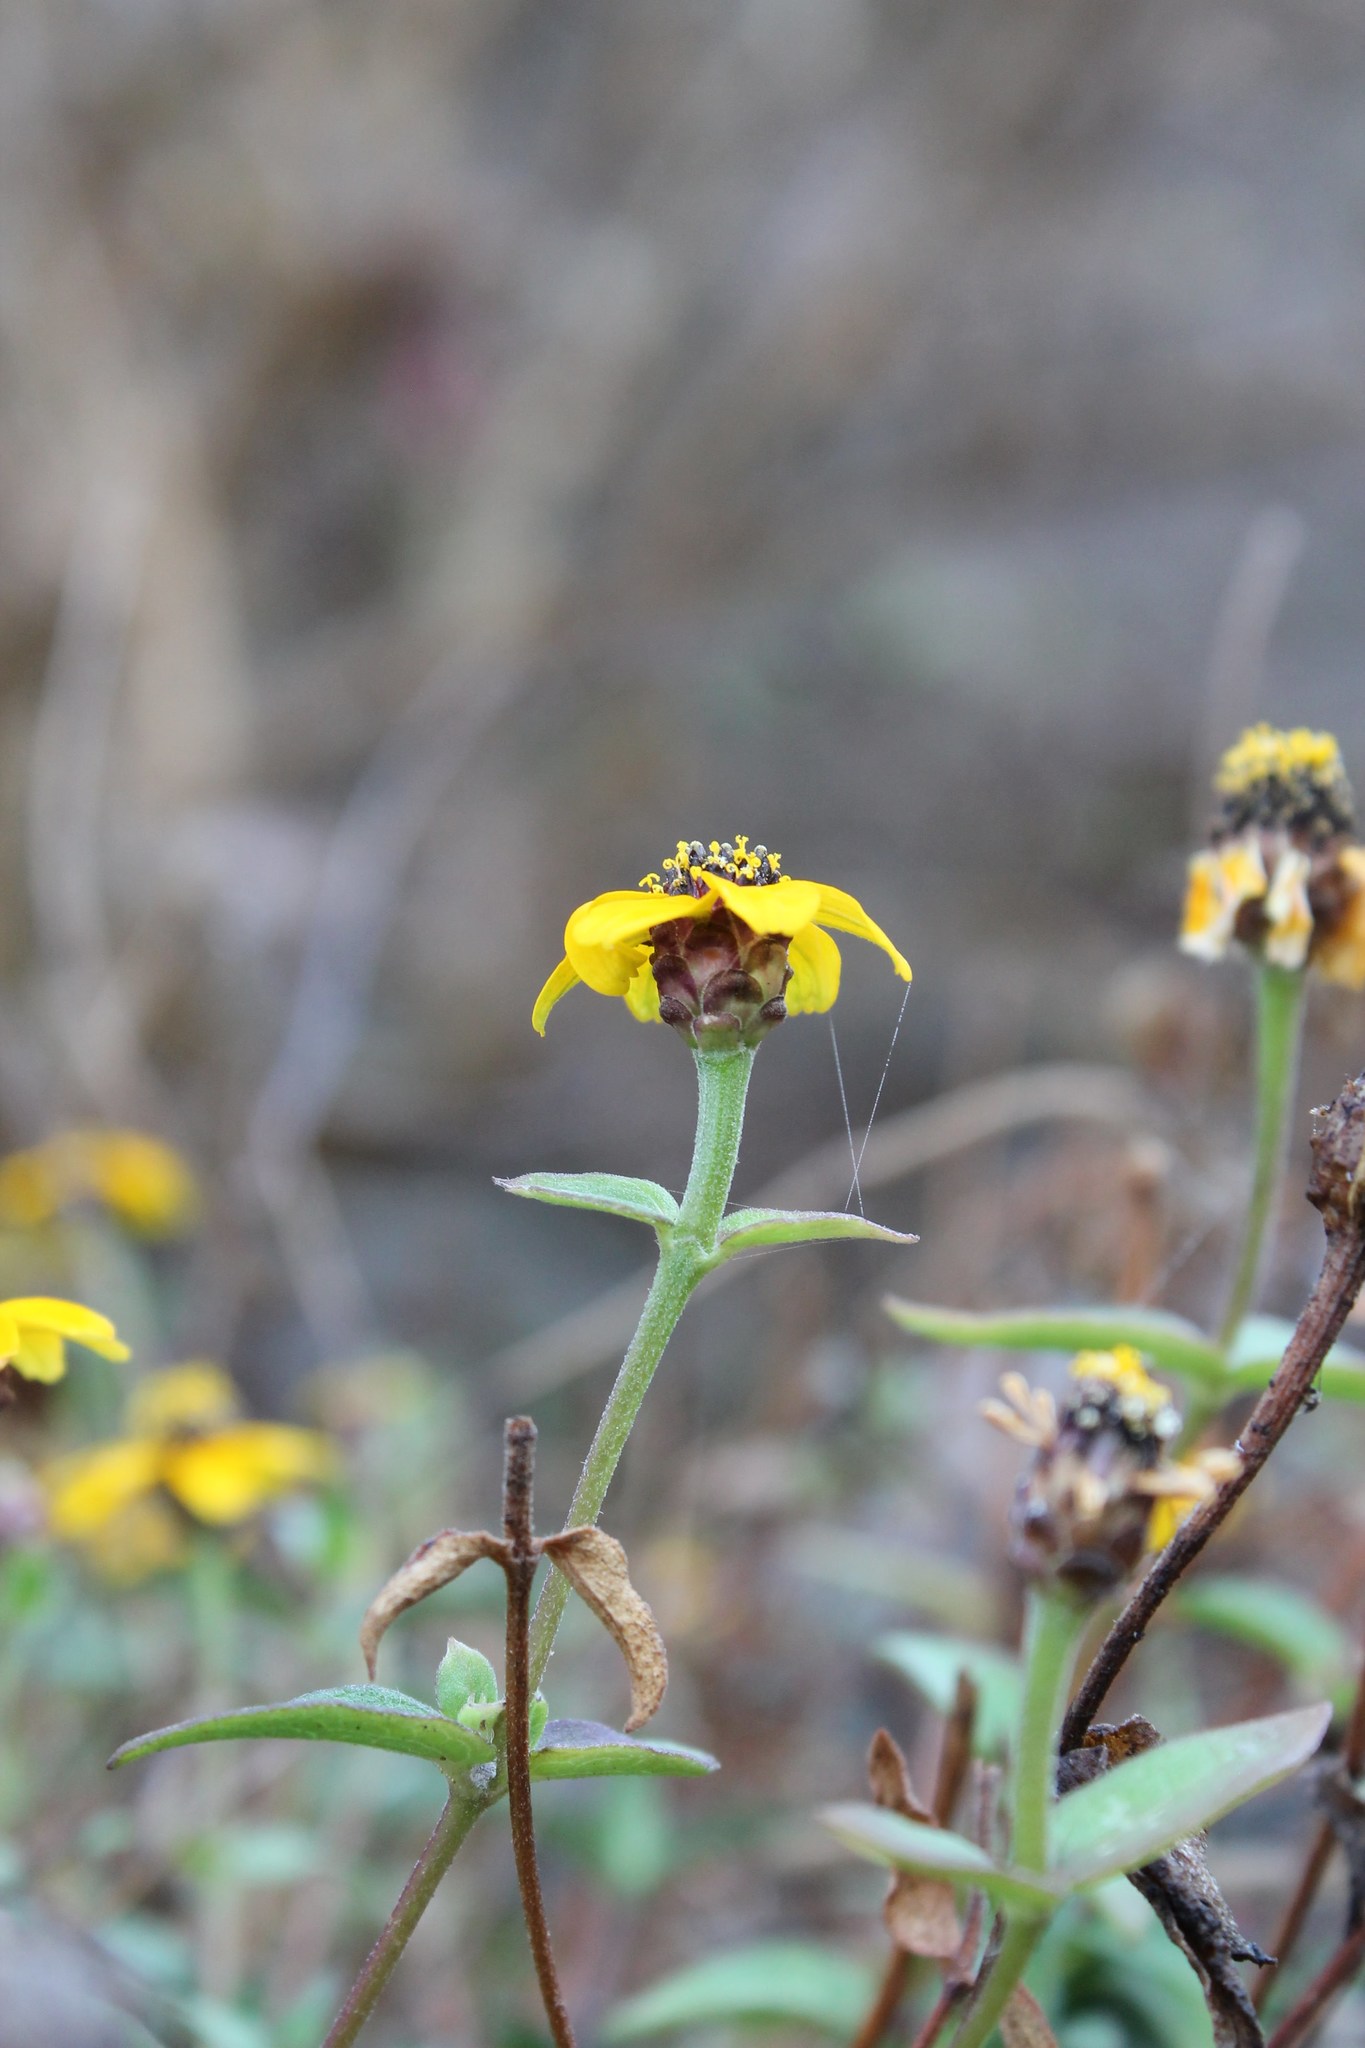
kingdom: Plantae
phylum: Tracheophyta
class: Magnoliopsida
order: Asterales
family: Asteraceae
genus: Zinnia
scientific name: Zinnia maritima
